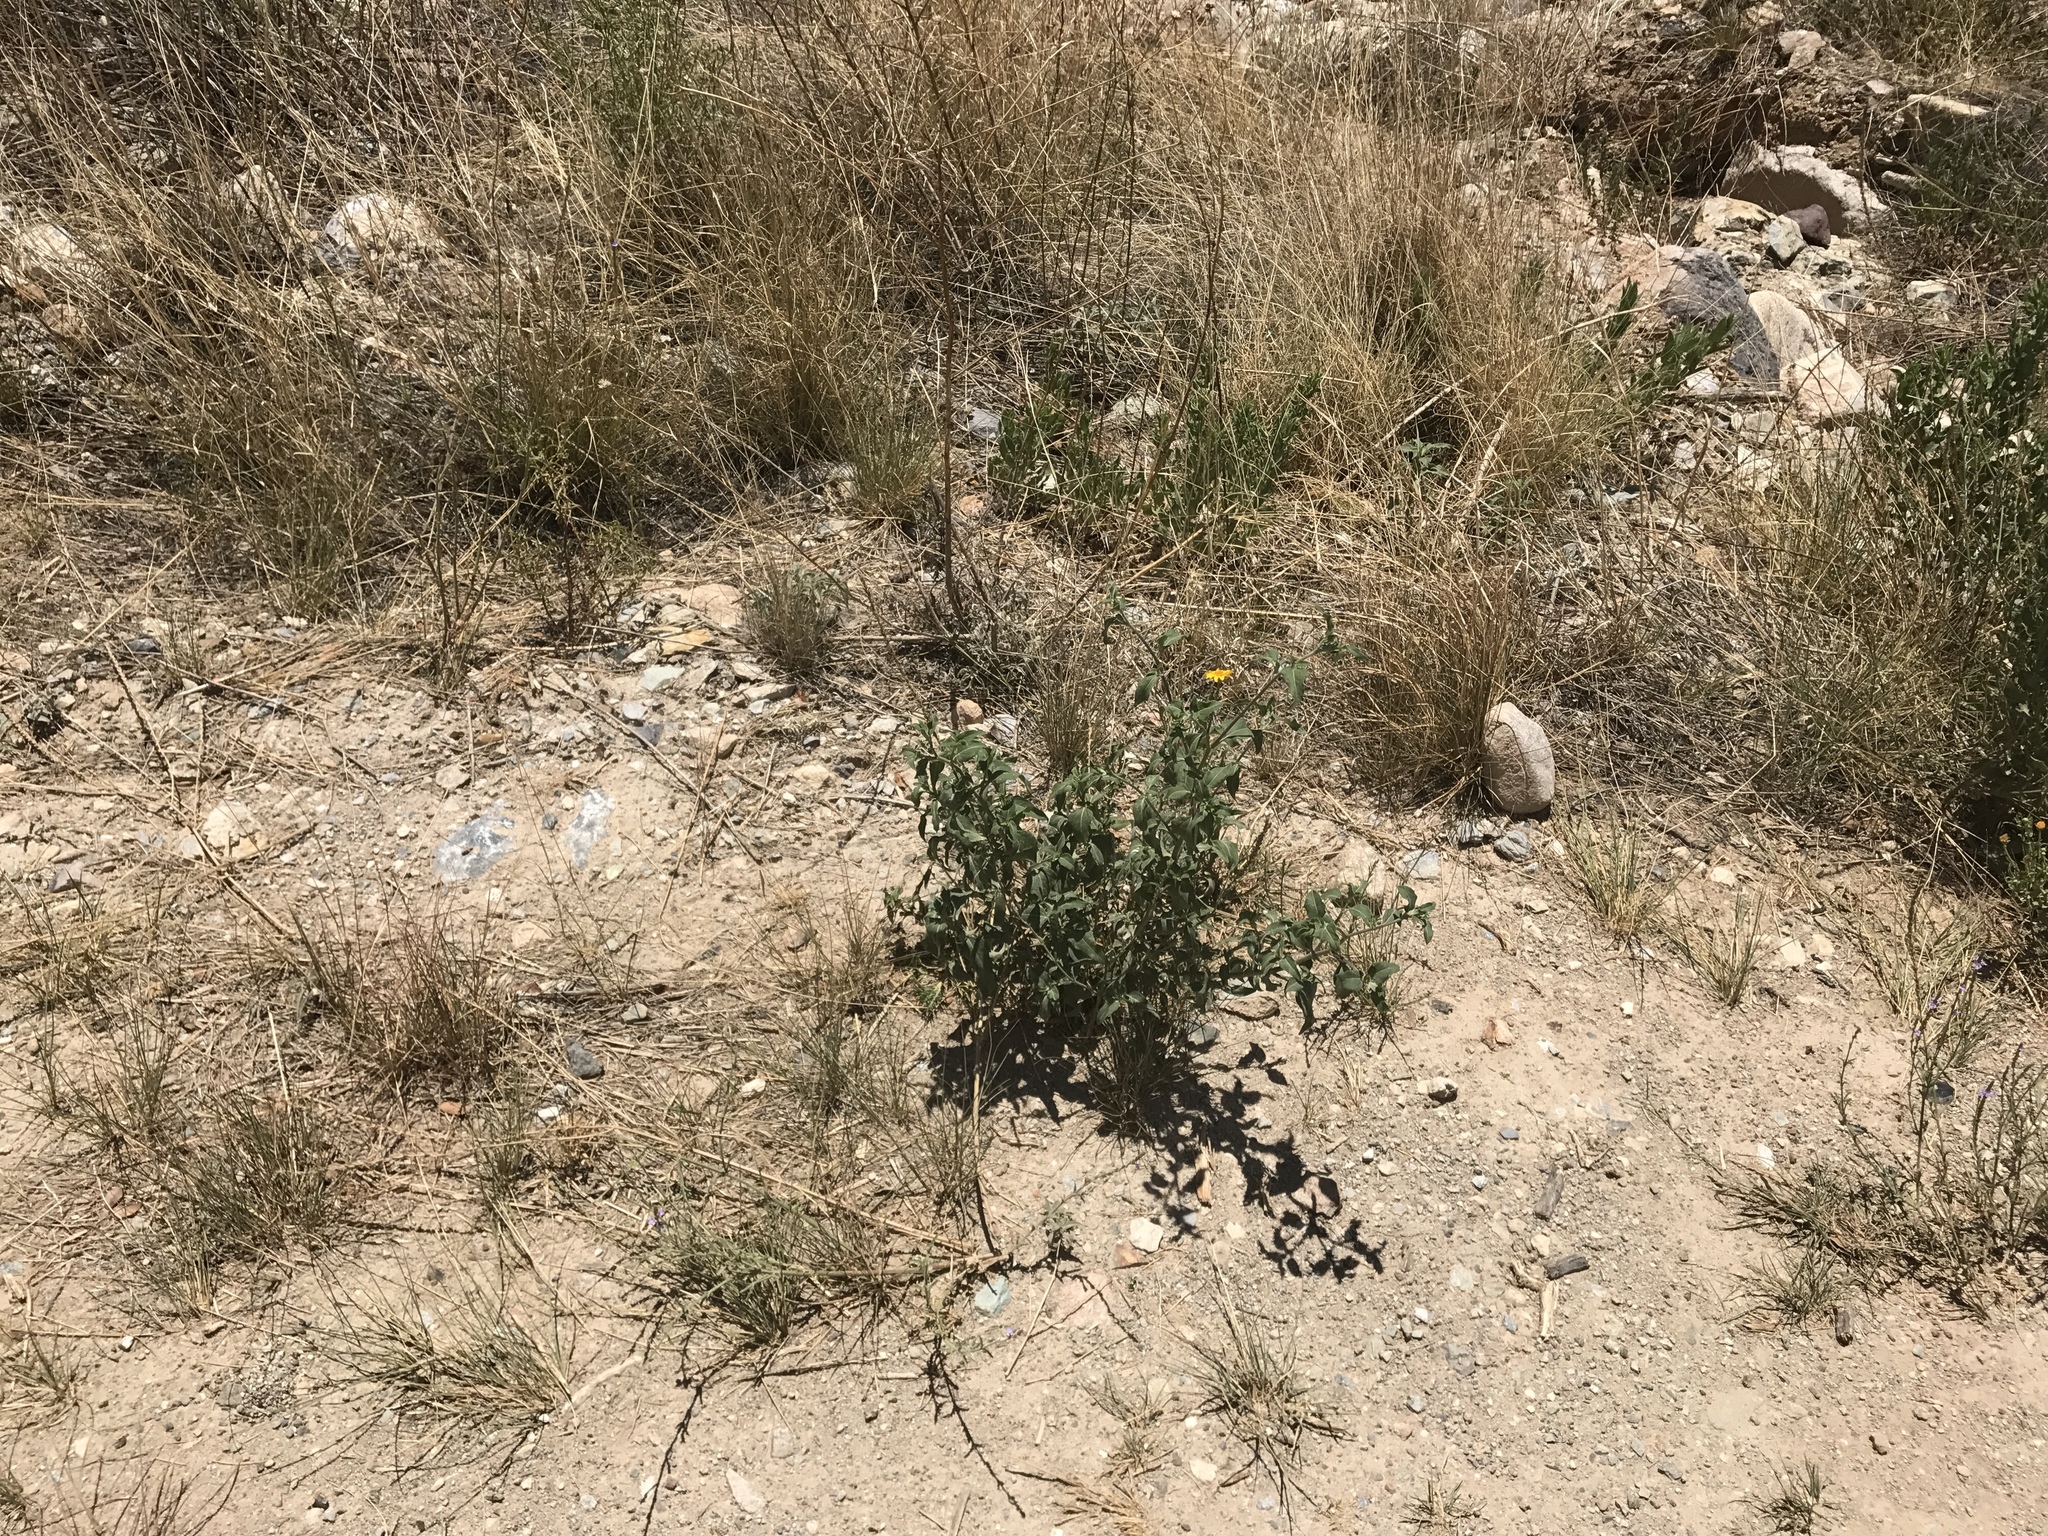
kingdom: Plantae
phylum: Tracheophyta
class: Magnoliopsida
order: Asterales
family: Asteraceae
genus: Verbesina
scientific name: Verbesina encelioides
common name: Golden crownbeard
